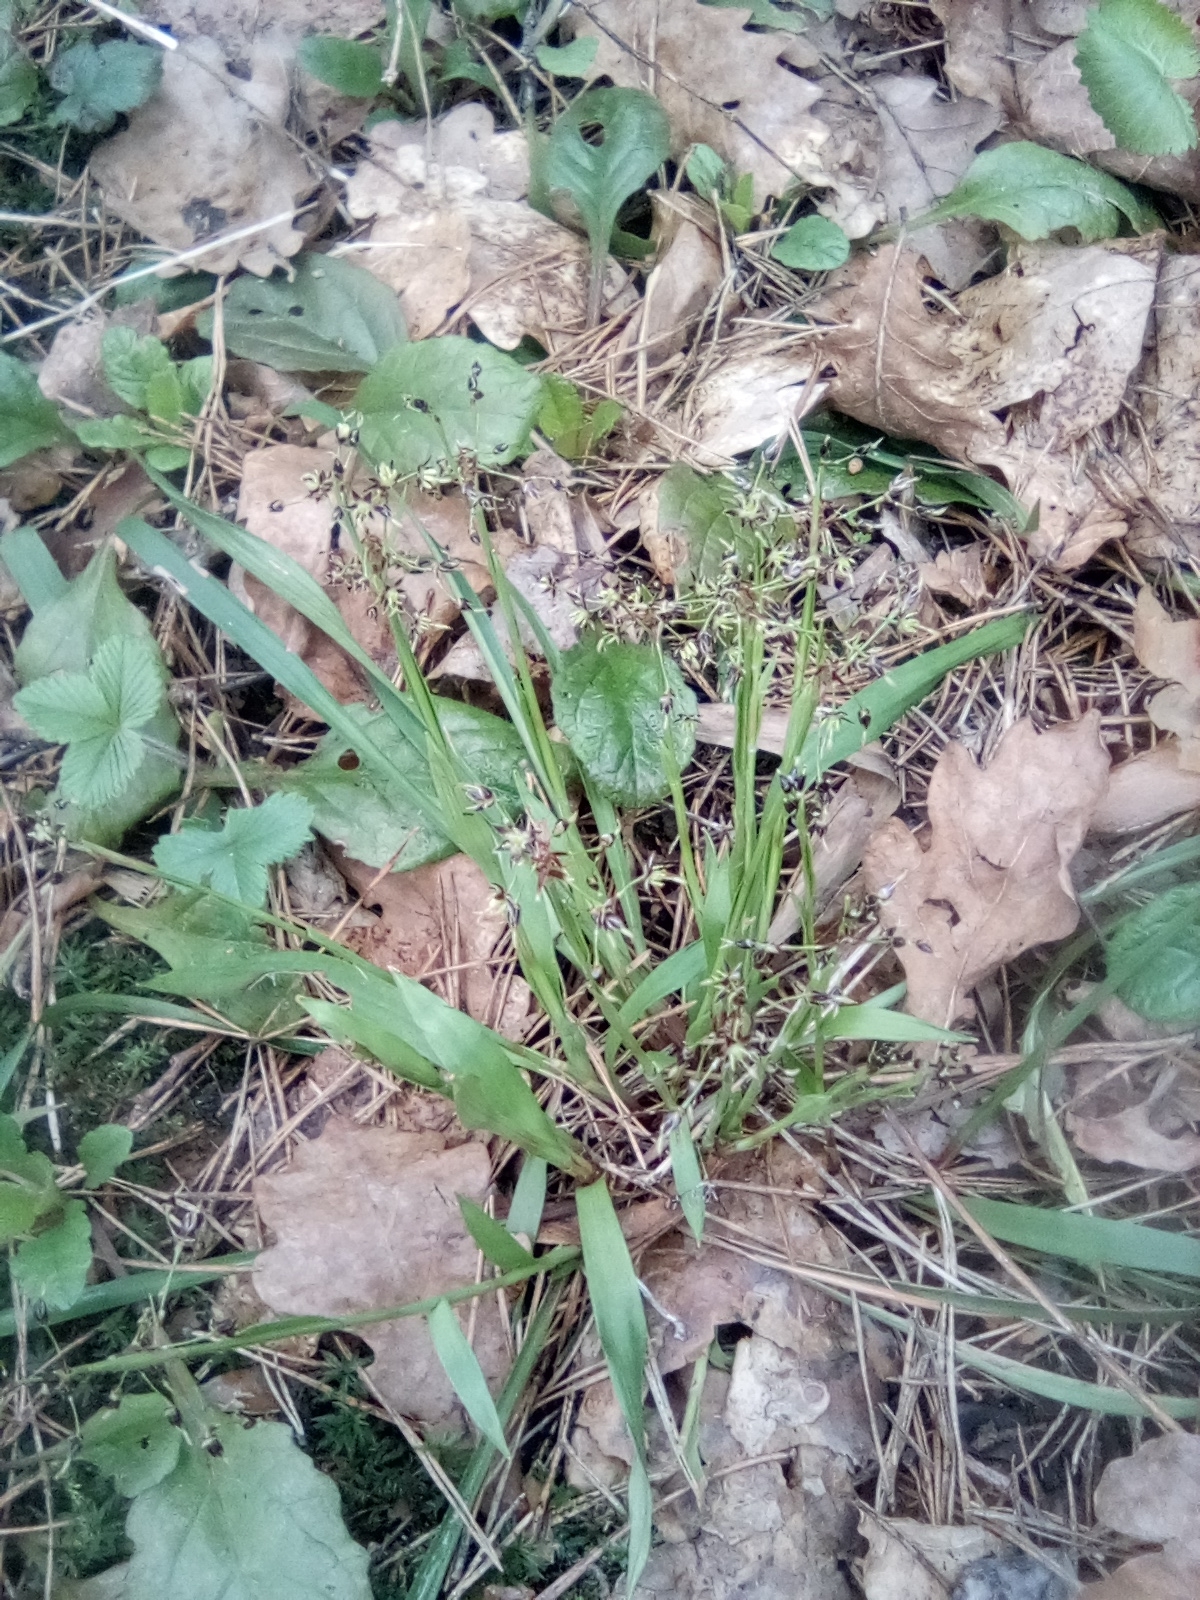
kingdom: Plantae
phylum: Tracheophyta
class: Liliopsida
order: Poales
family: Juncaceae
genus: Luzula
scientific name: Luzula pilosa
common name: Hairy wood-rush
